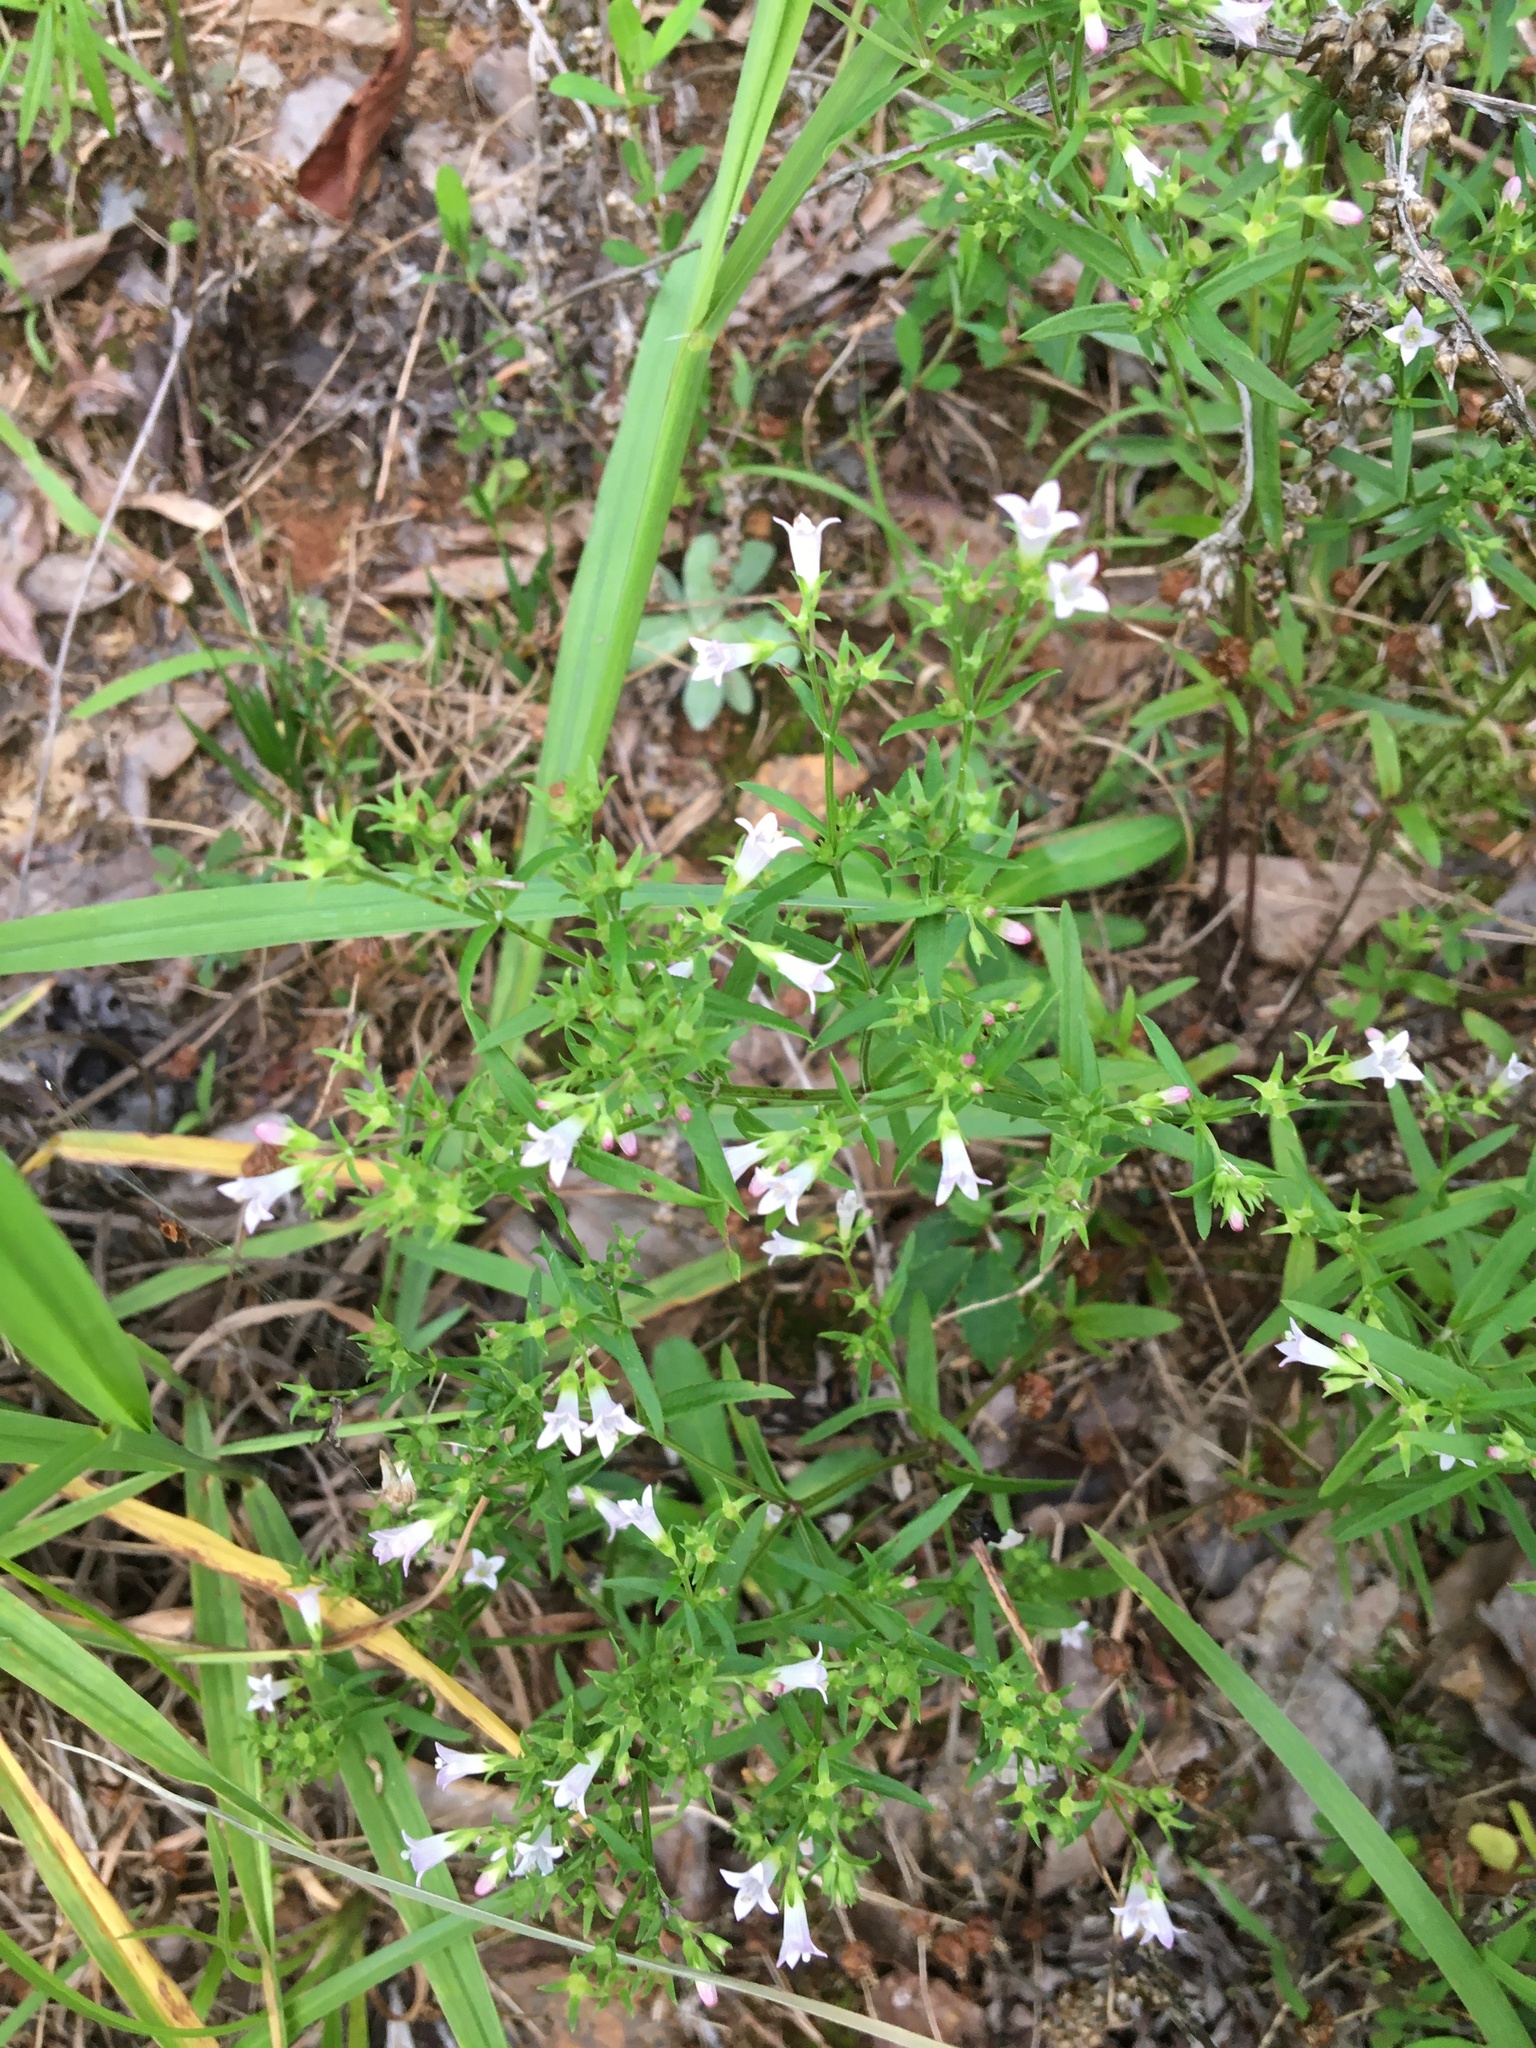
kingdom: Plantae
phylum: Tracheophyta
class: Magnoliopsida
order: Gentianales
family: Rubiaceae
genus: Houstonia
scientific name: Houstonia longifolia
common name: Long-leaved bluets
